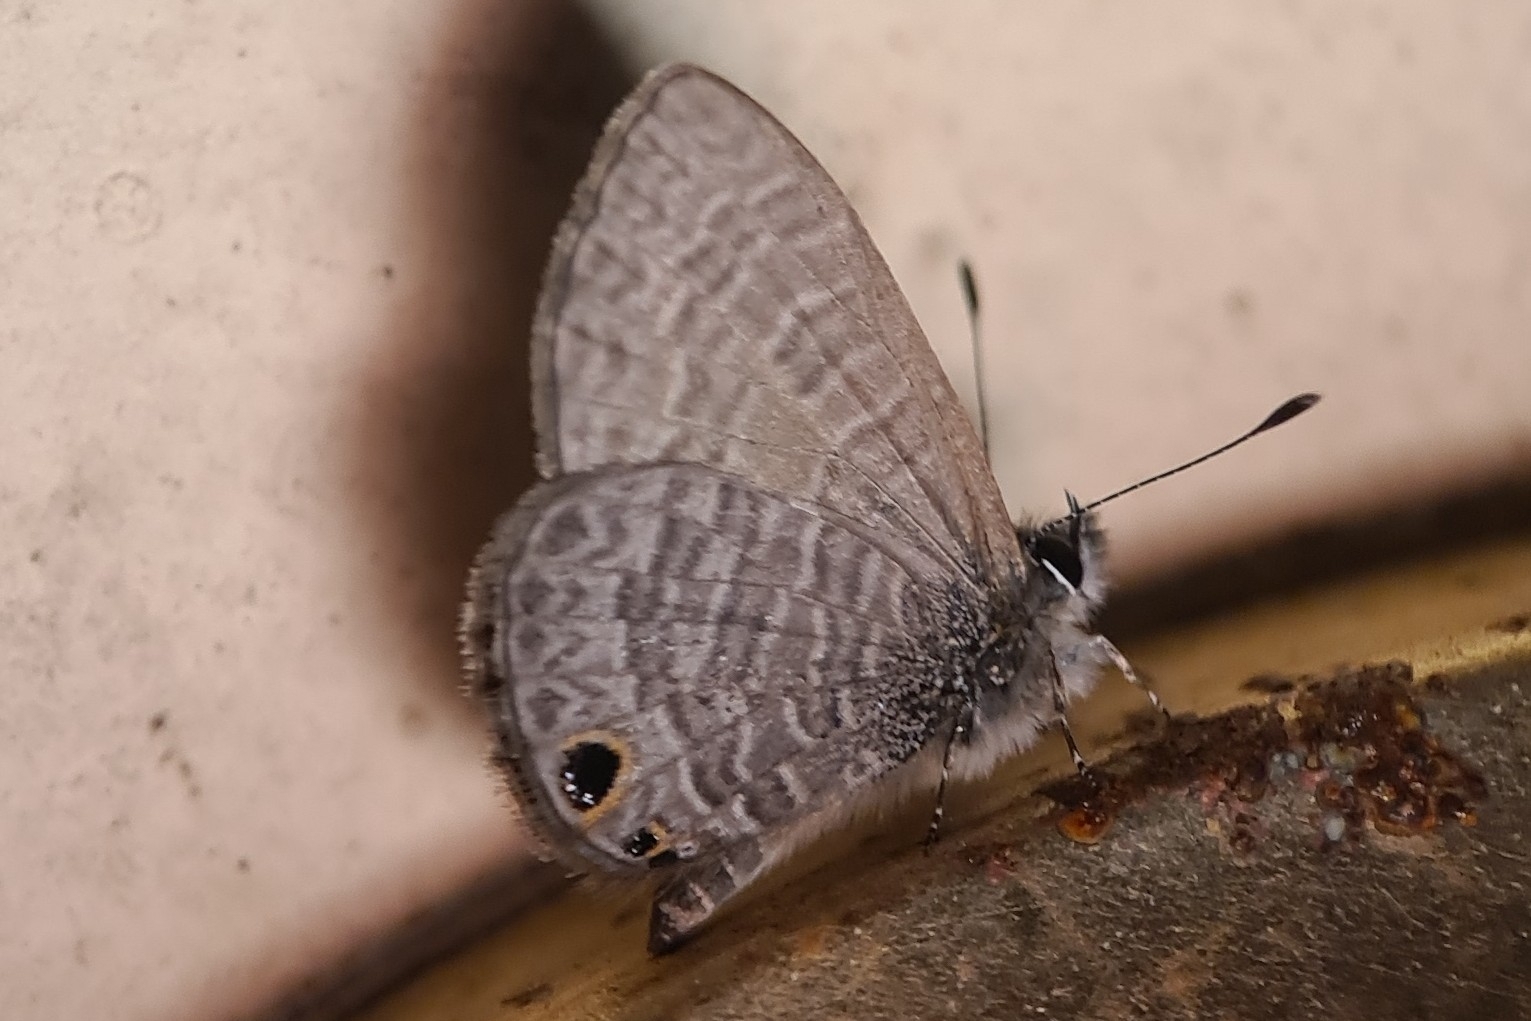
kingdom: Animalia
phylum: Arthropoda
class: Insecta
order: Lepidoptera
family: Lycaenidae
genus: Prosotas
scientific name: Prosotas dubiosa
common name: Tailless lineblue
